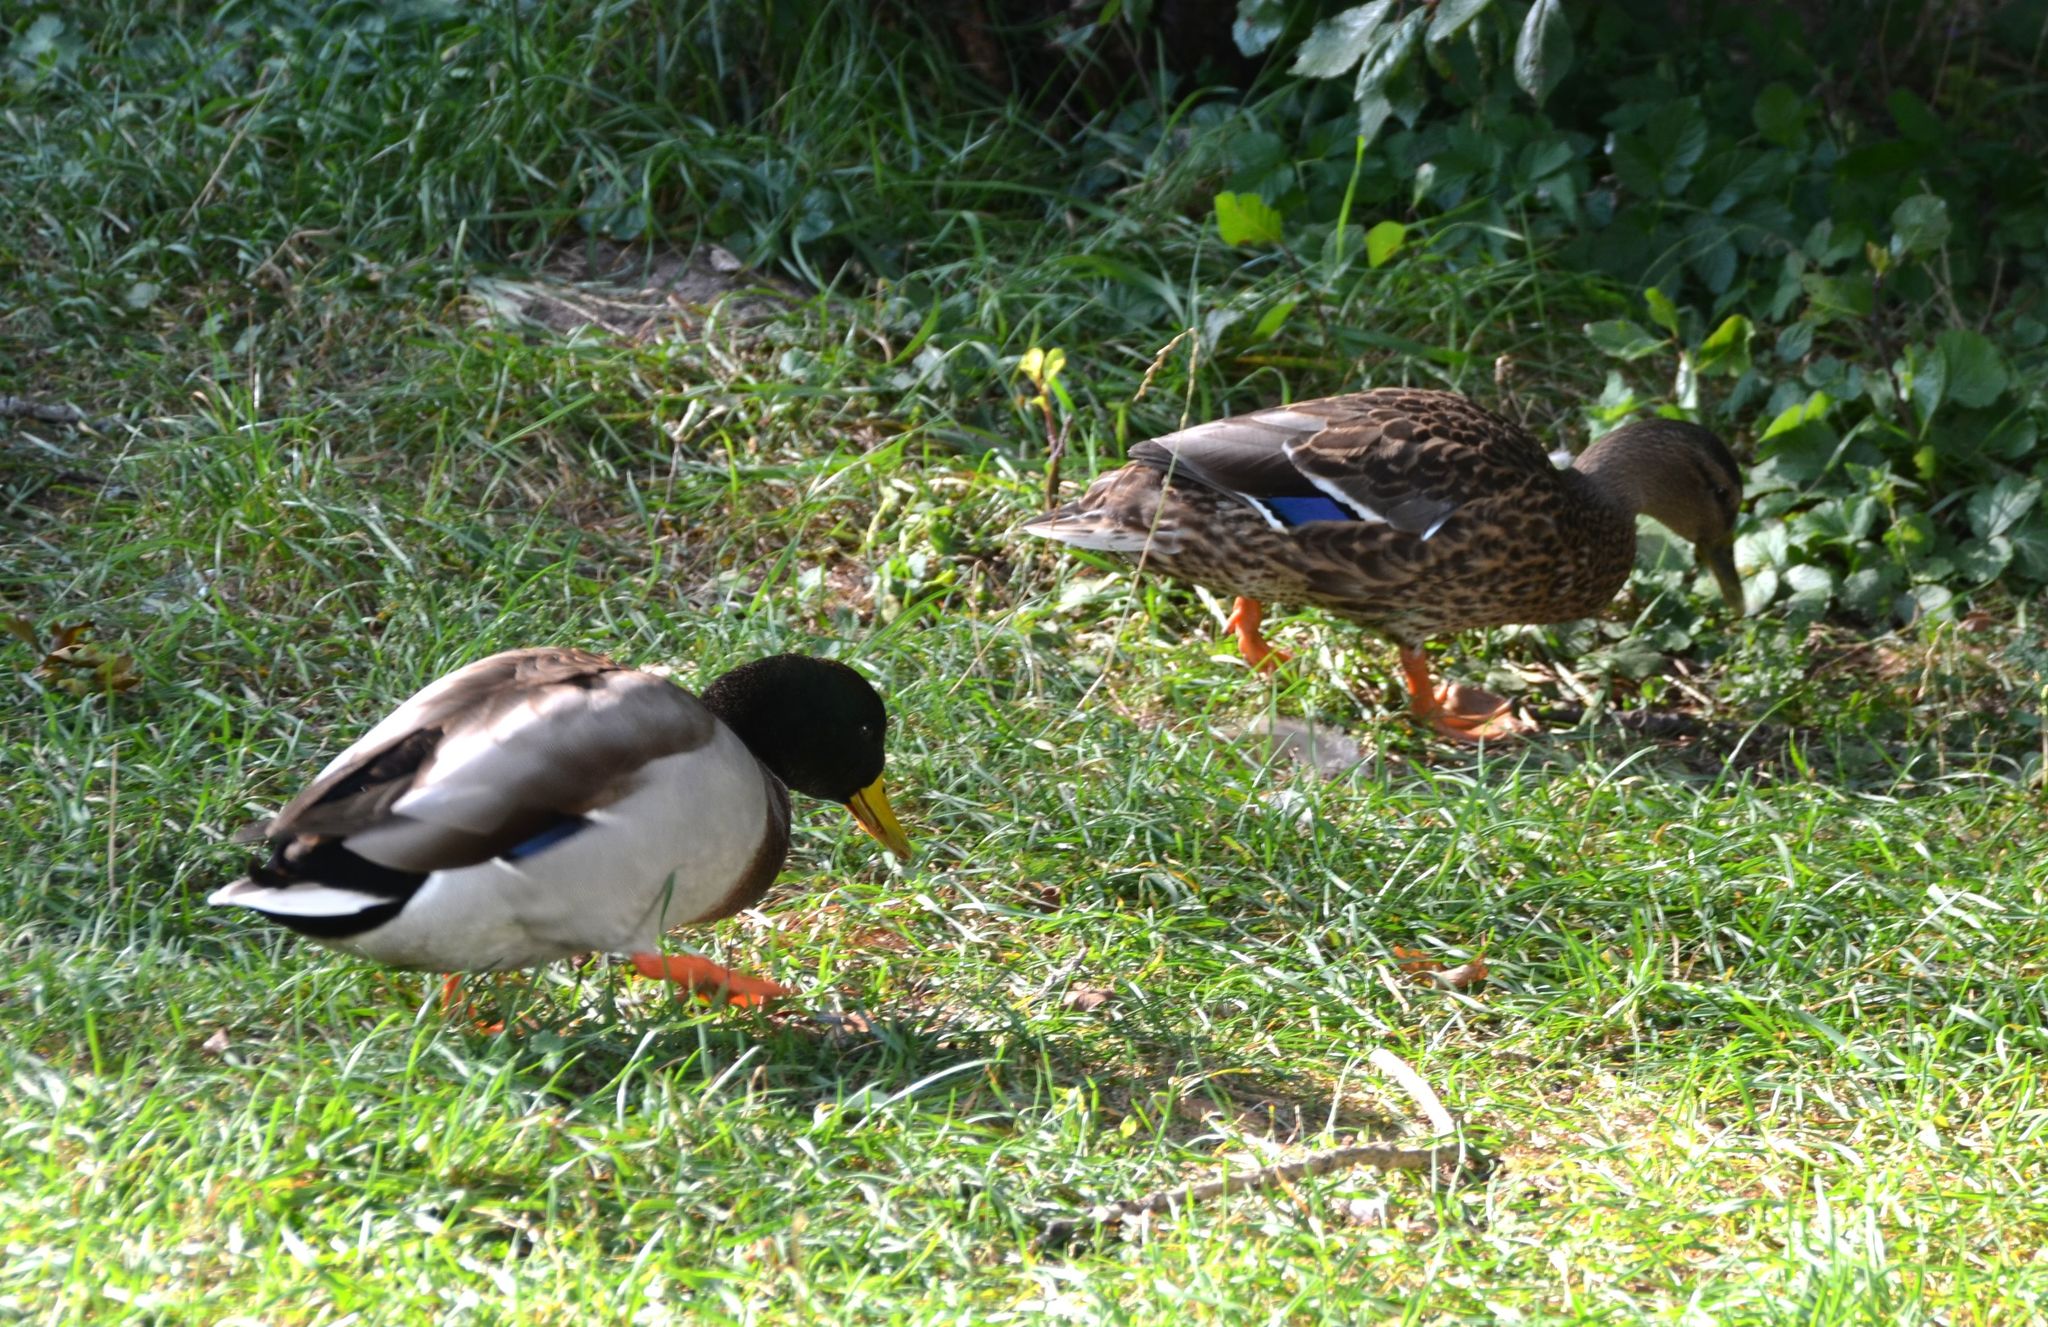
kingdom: Animalia
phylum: Chordata
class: Aves
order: Anseriformes
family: Anatidae
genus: Anas
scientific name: Anas platyrhynchos
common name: Mallard
